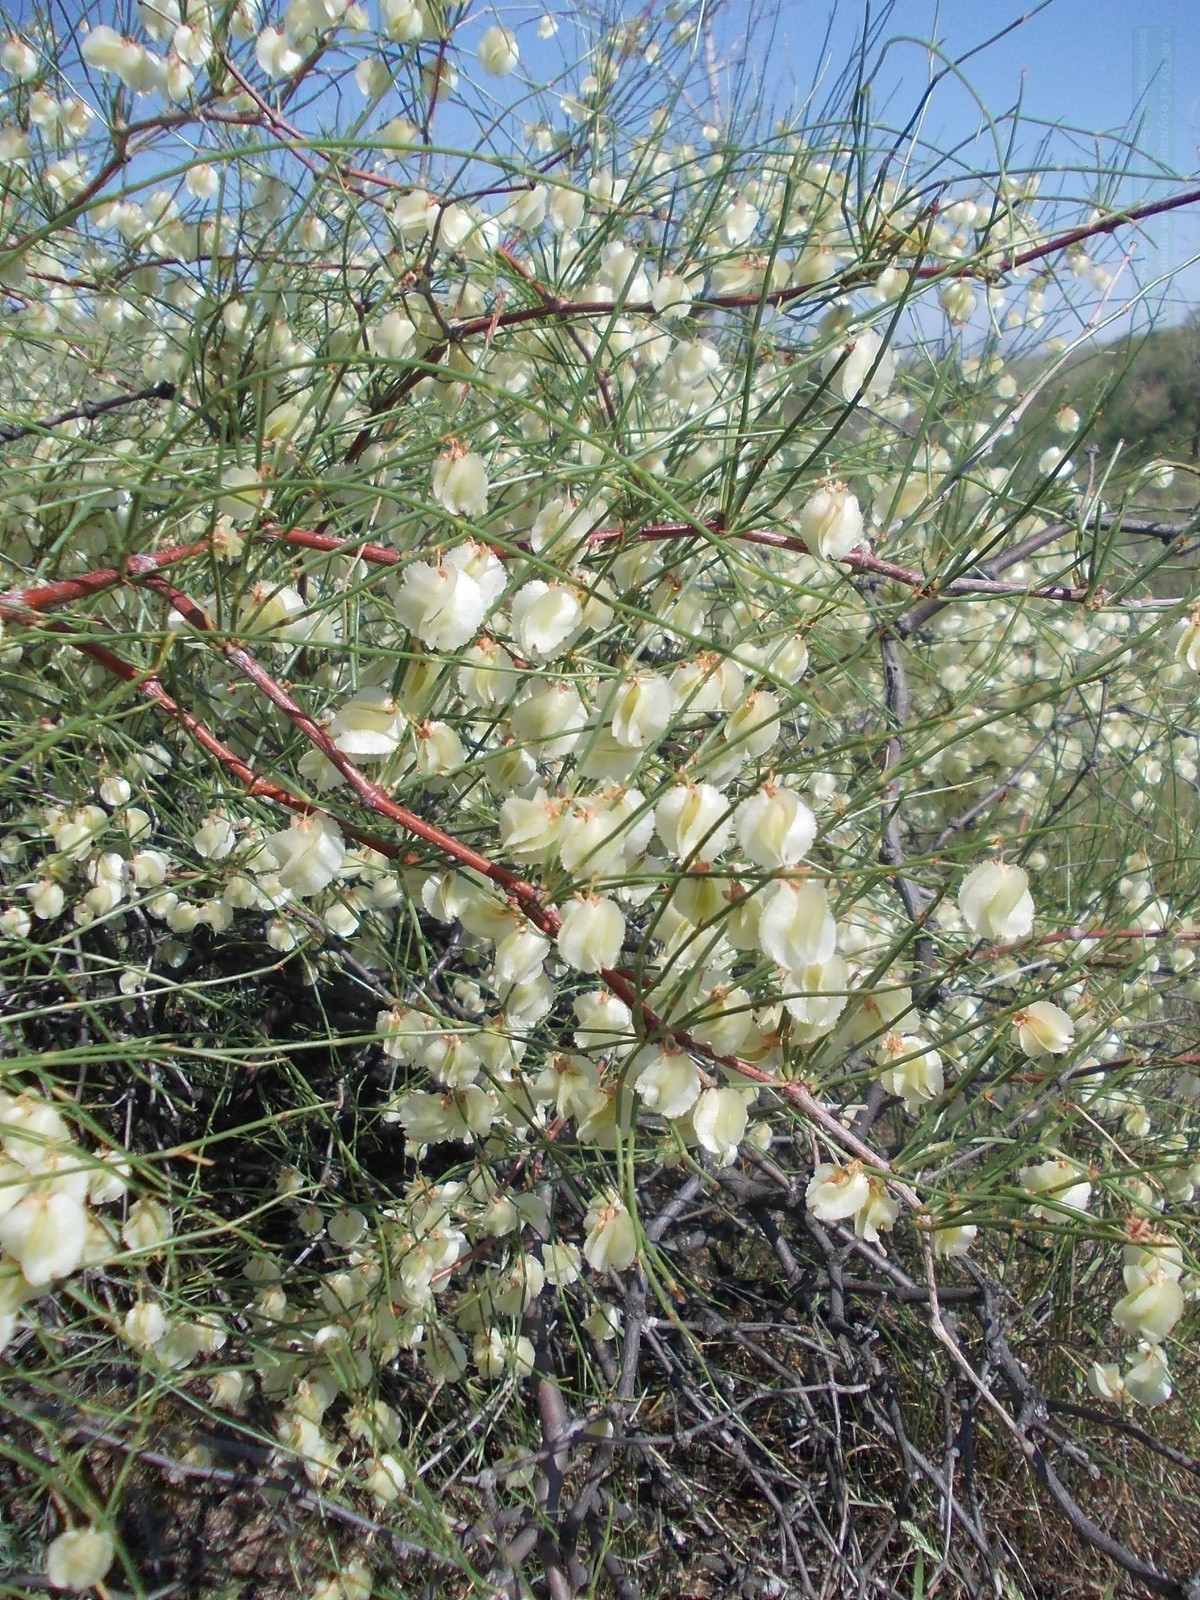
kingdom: Plantae
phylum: Tracheophyta
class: Magnoliopsida
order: Caryophyllales
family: Polygonaceae
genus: Calligonum
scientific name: Calligonum aphyllum
